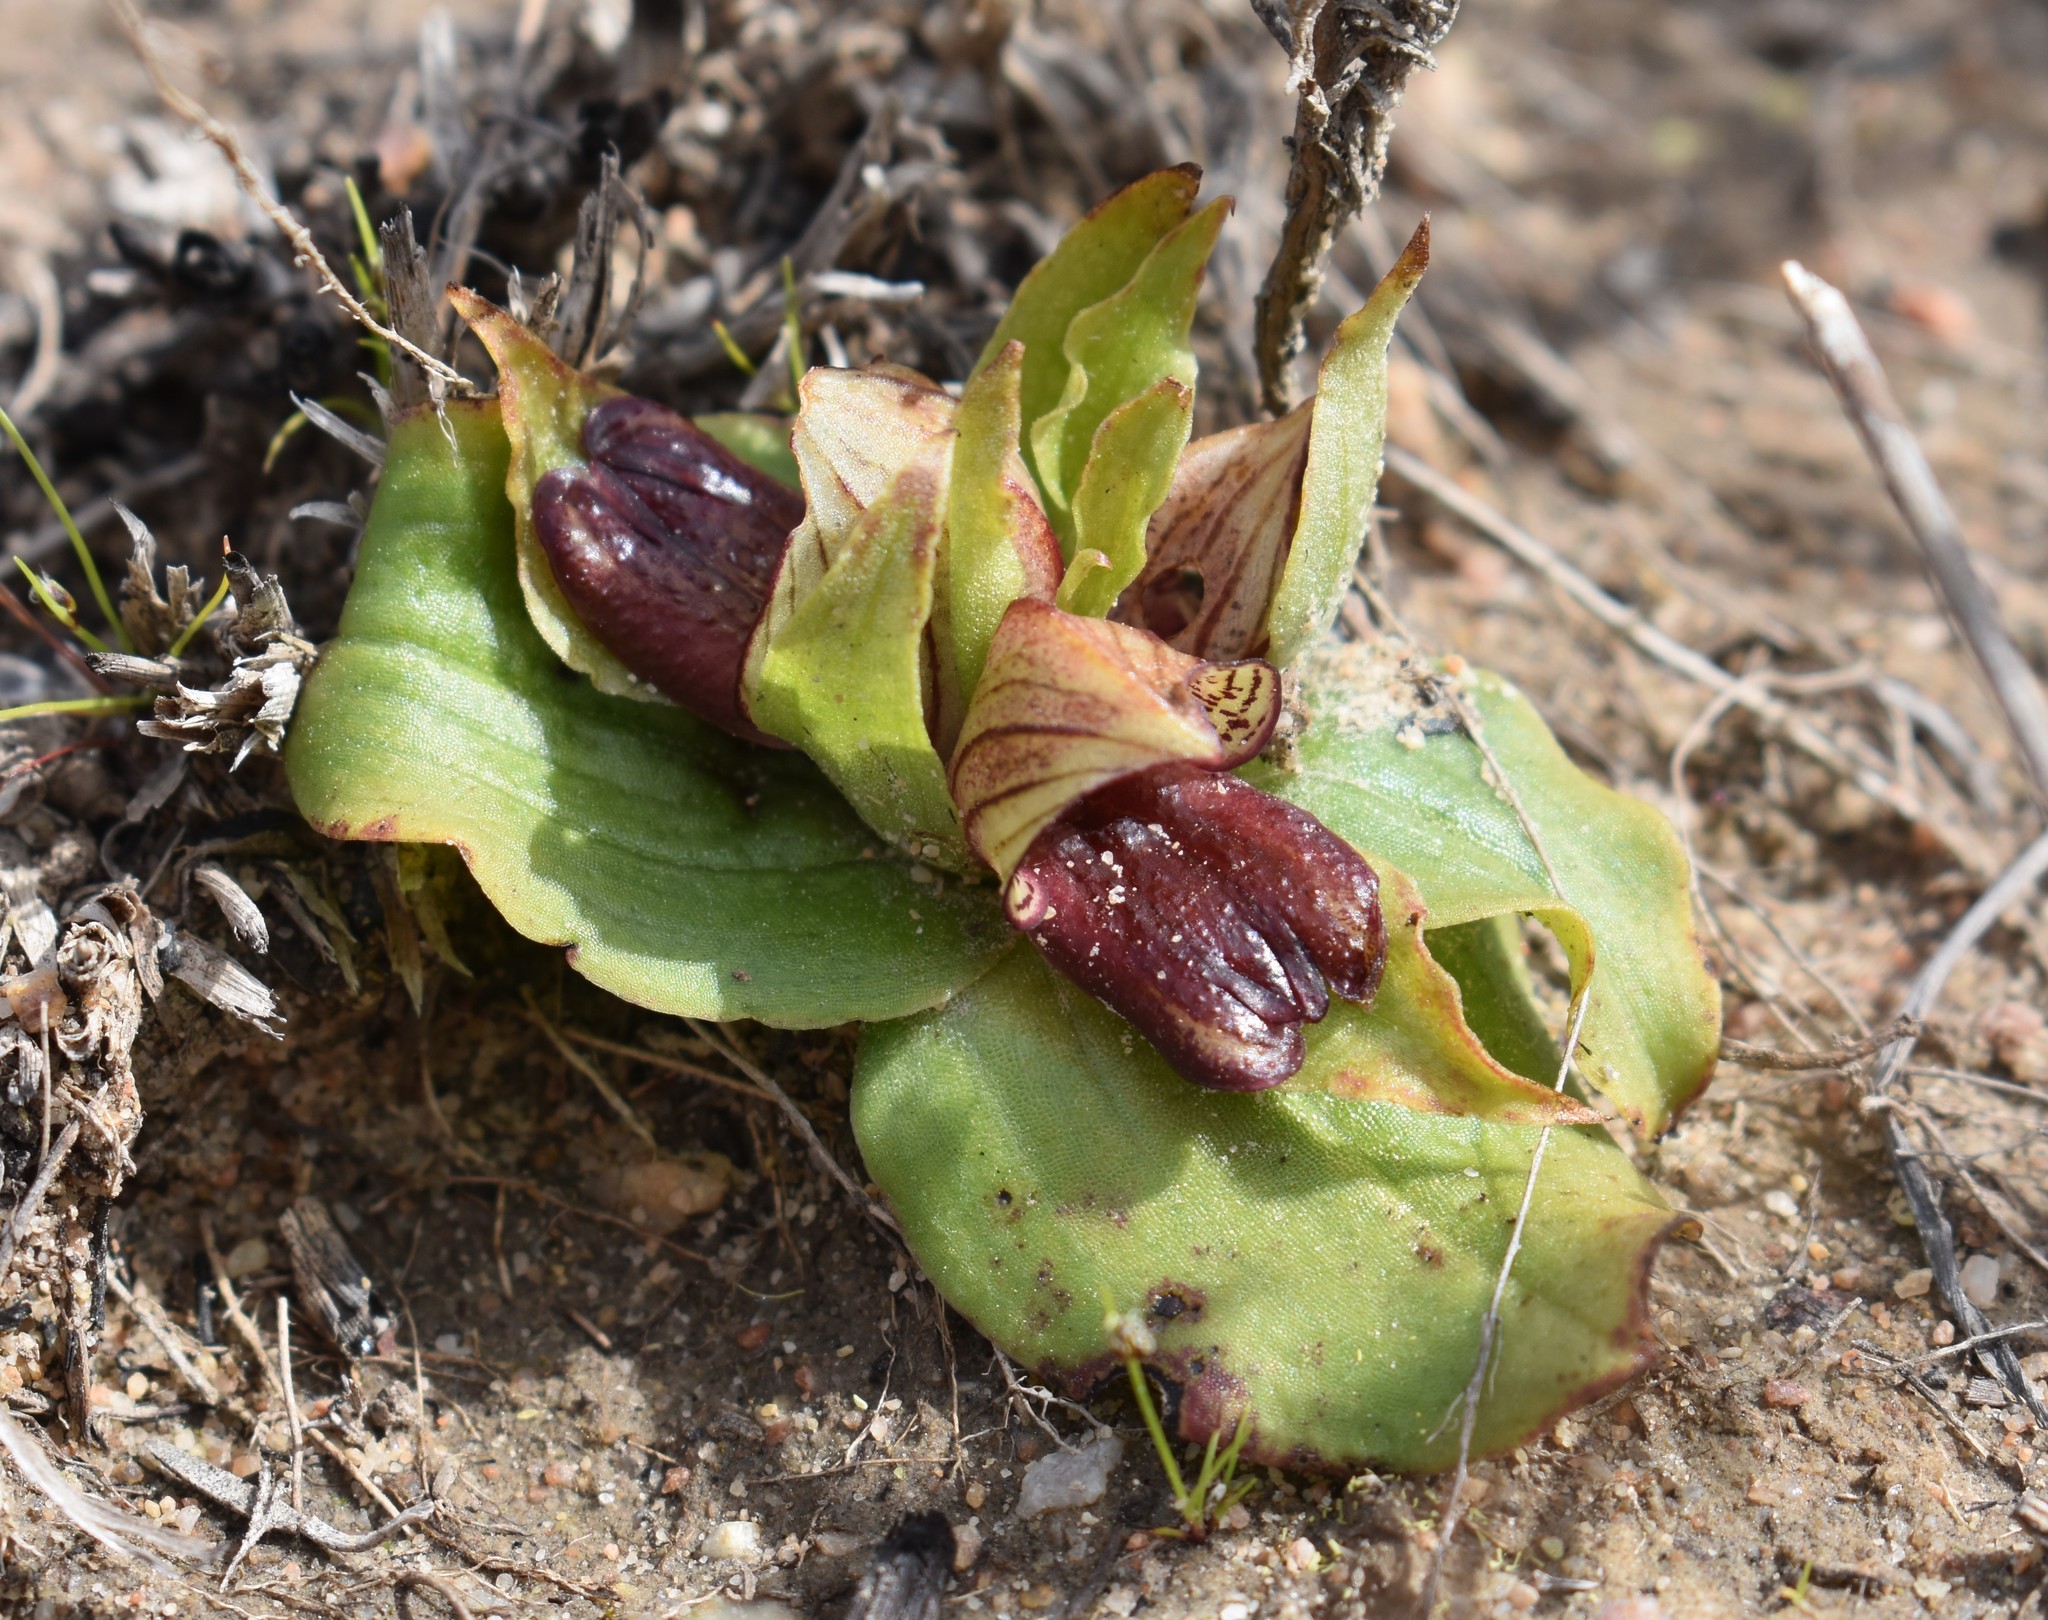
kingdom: Plantae
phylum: Tracheophyta
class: Liliopsida
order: Asparagales
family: Orchidaceae
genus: Satyrium
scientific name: Satyrium pumilum
